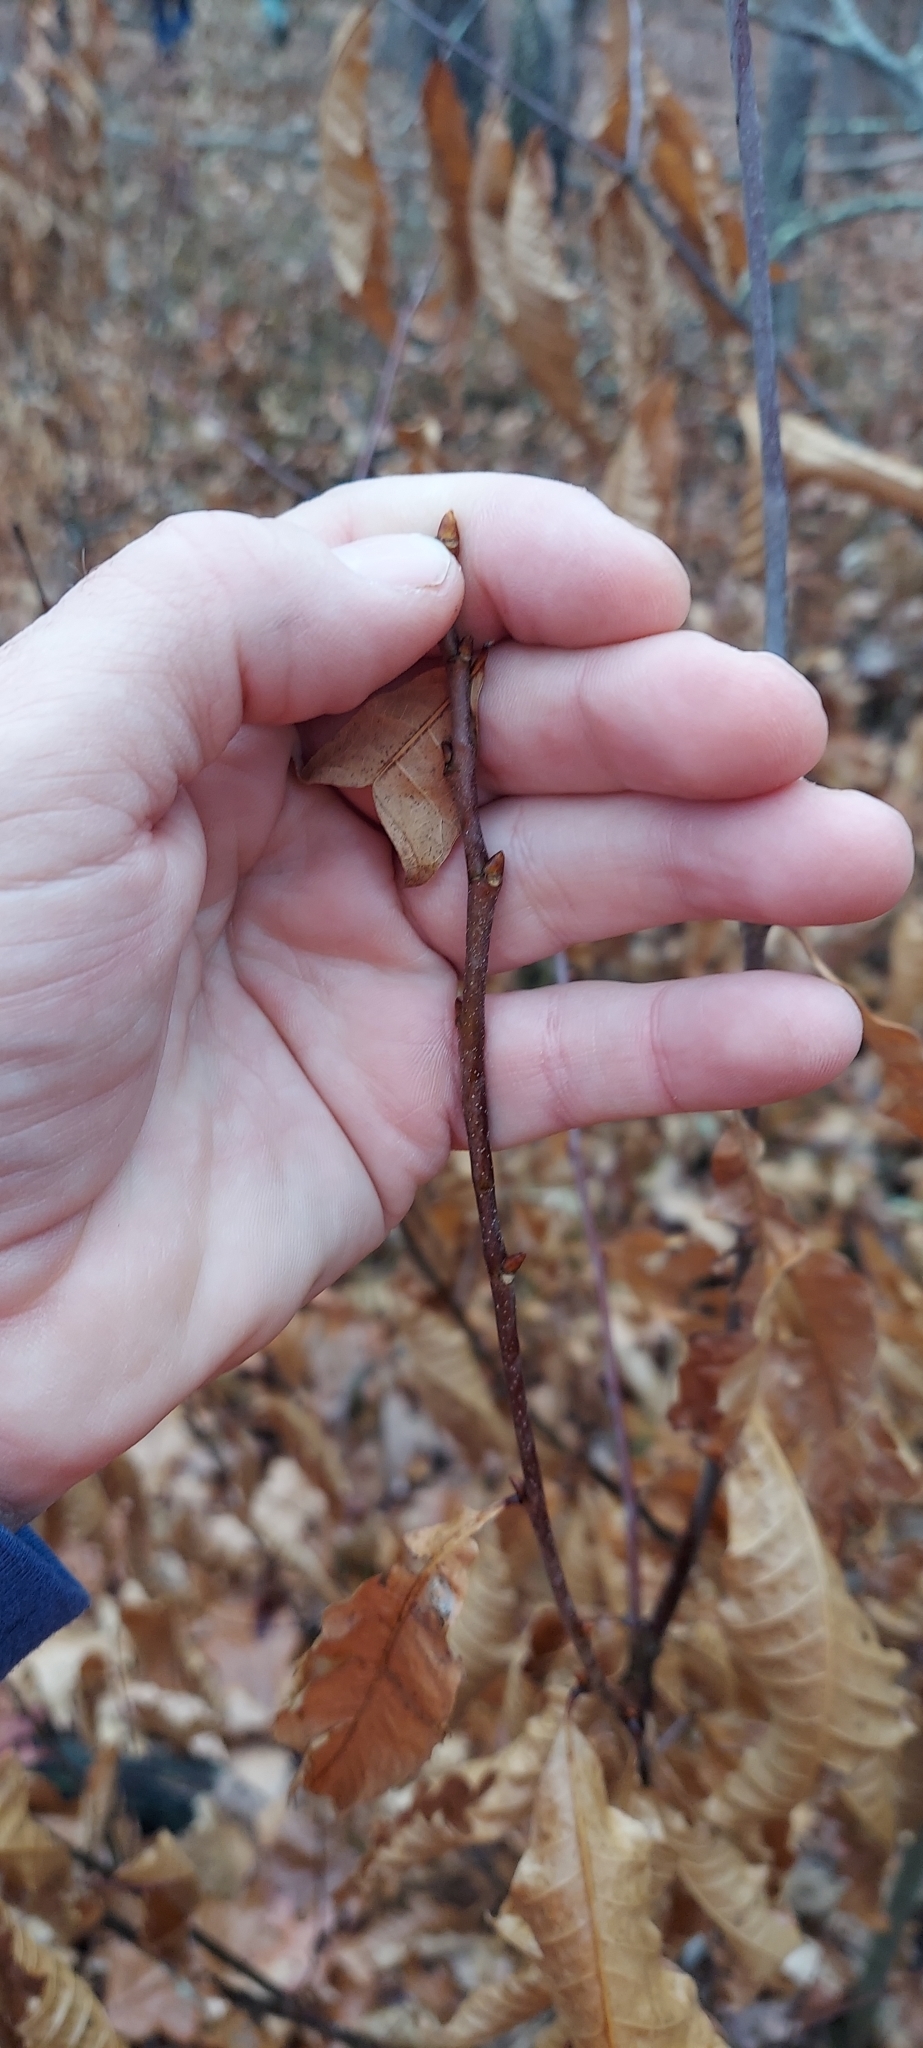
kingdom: Plantae
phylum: Tracheophyta
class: Magnoliopsida
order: Fagales
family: Fagaceae
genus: Castanea
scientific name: Castanea dentata
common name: American chestnut
